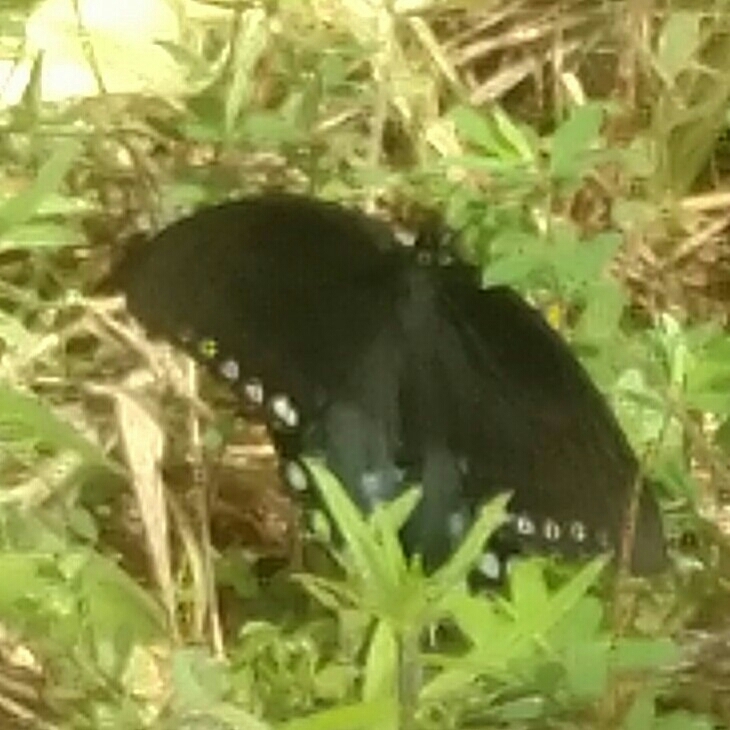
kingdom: Animalia
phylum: Arthropoda
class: Insecta
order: Lepidoptera
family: Papilionidae
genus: Papilio
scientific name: Papilio troilus
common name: Spicebush swallowtail
